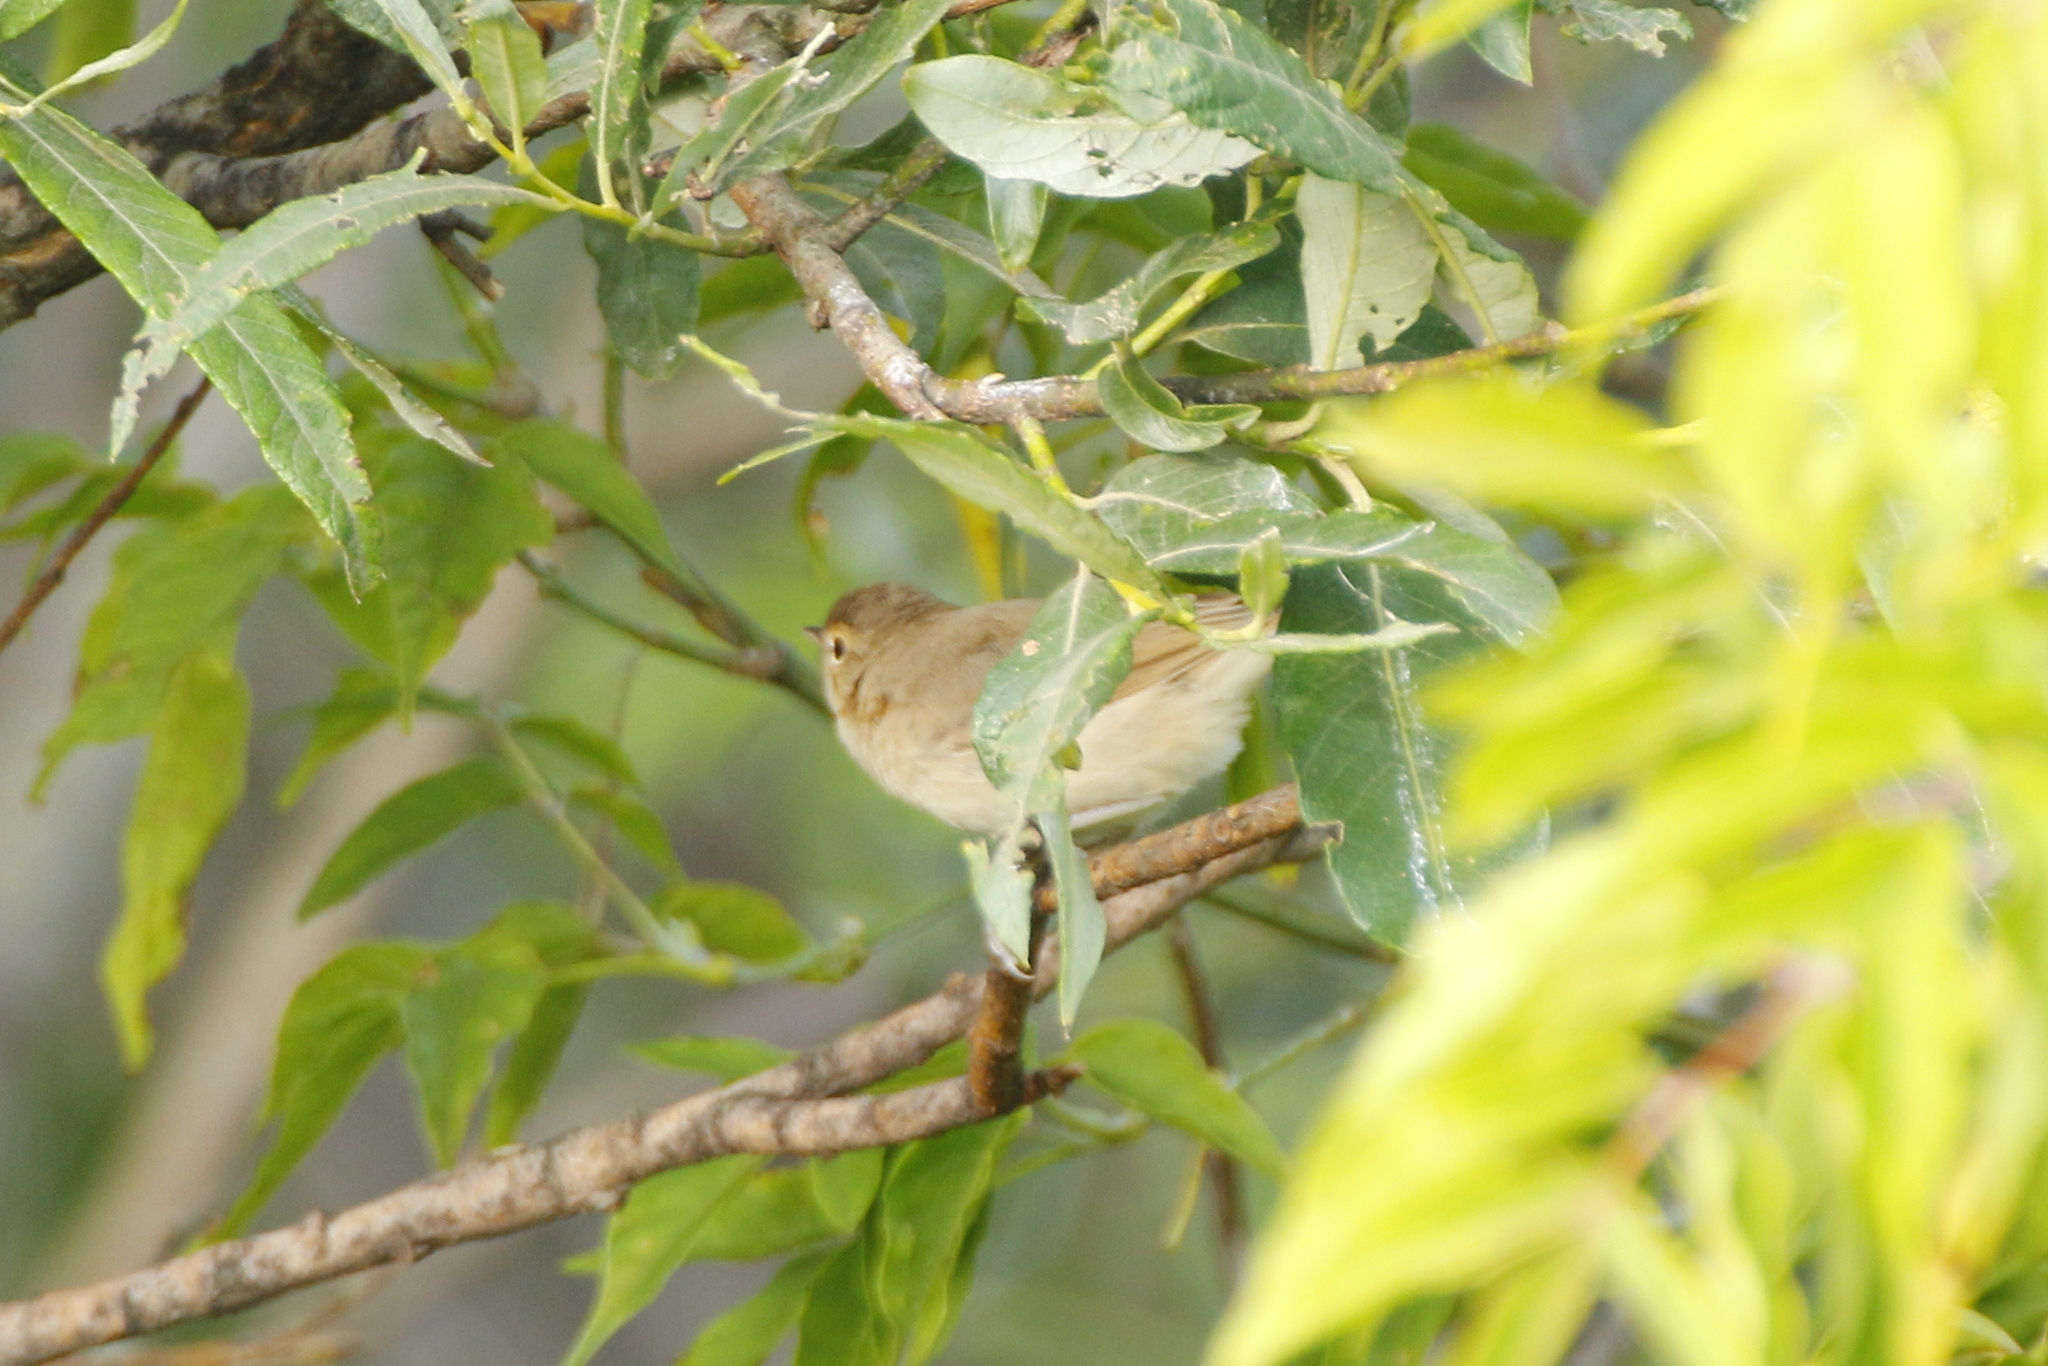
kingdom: Animalia
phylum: Chordata
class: Aves
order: Passeriformes
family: Acrocephalidae
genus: Iduna
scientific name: Iduna caligata
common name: Booted warbler
